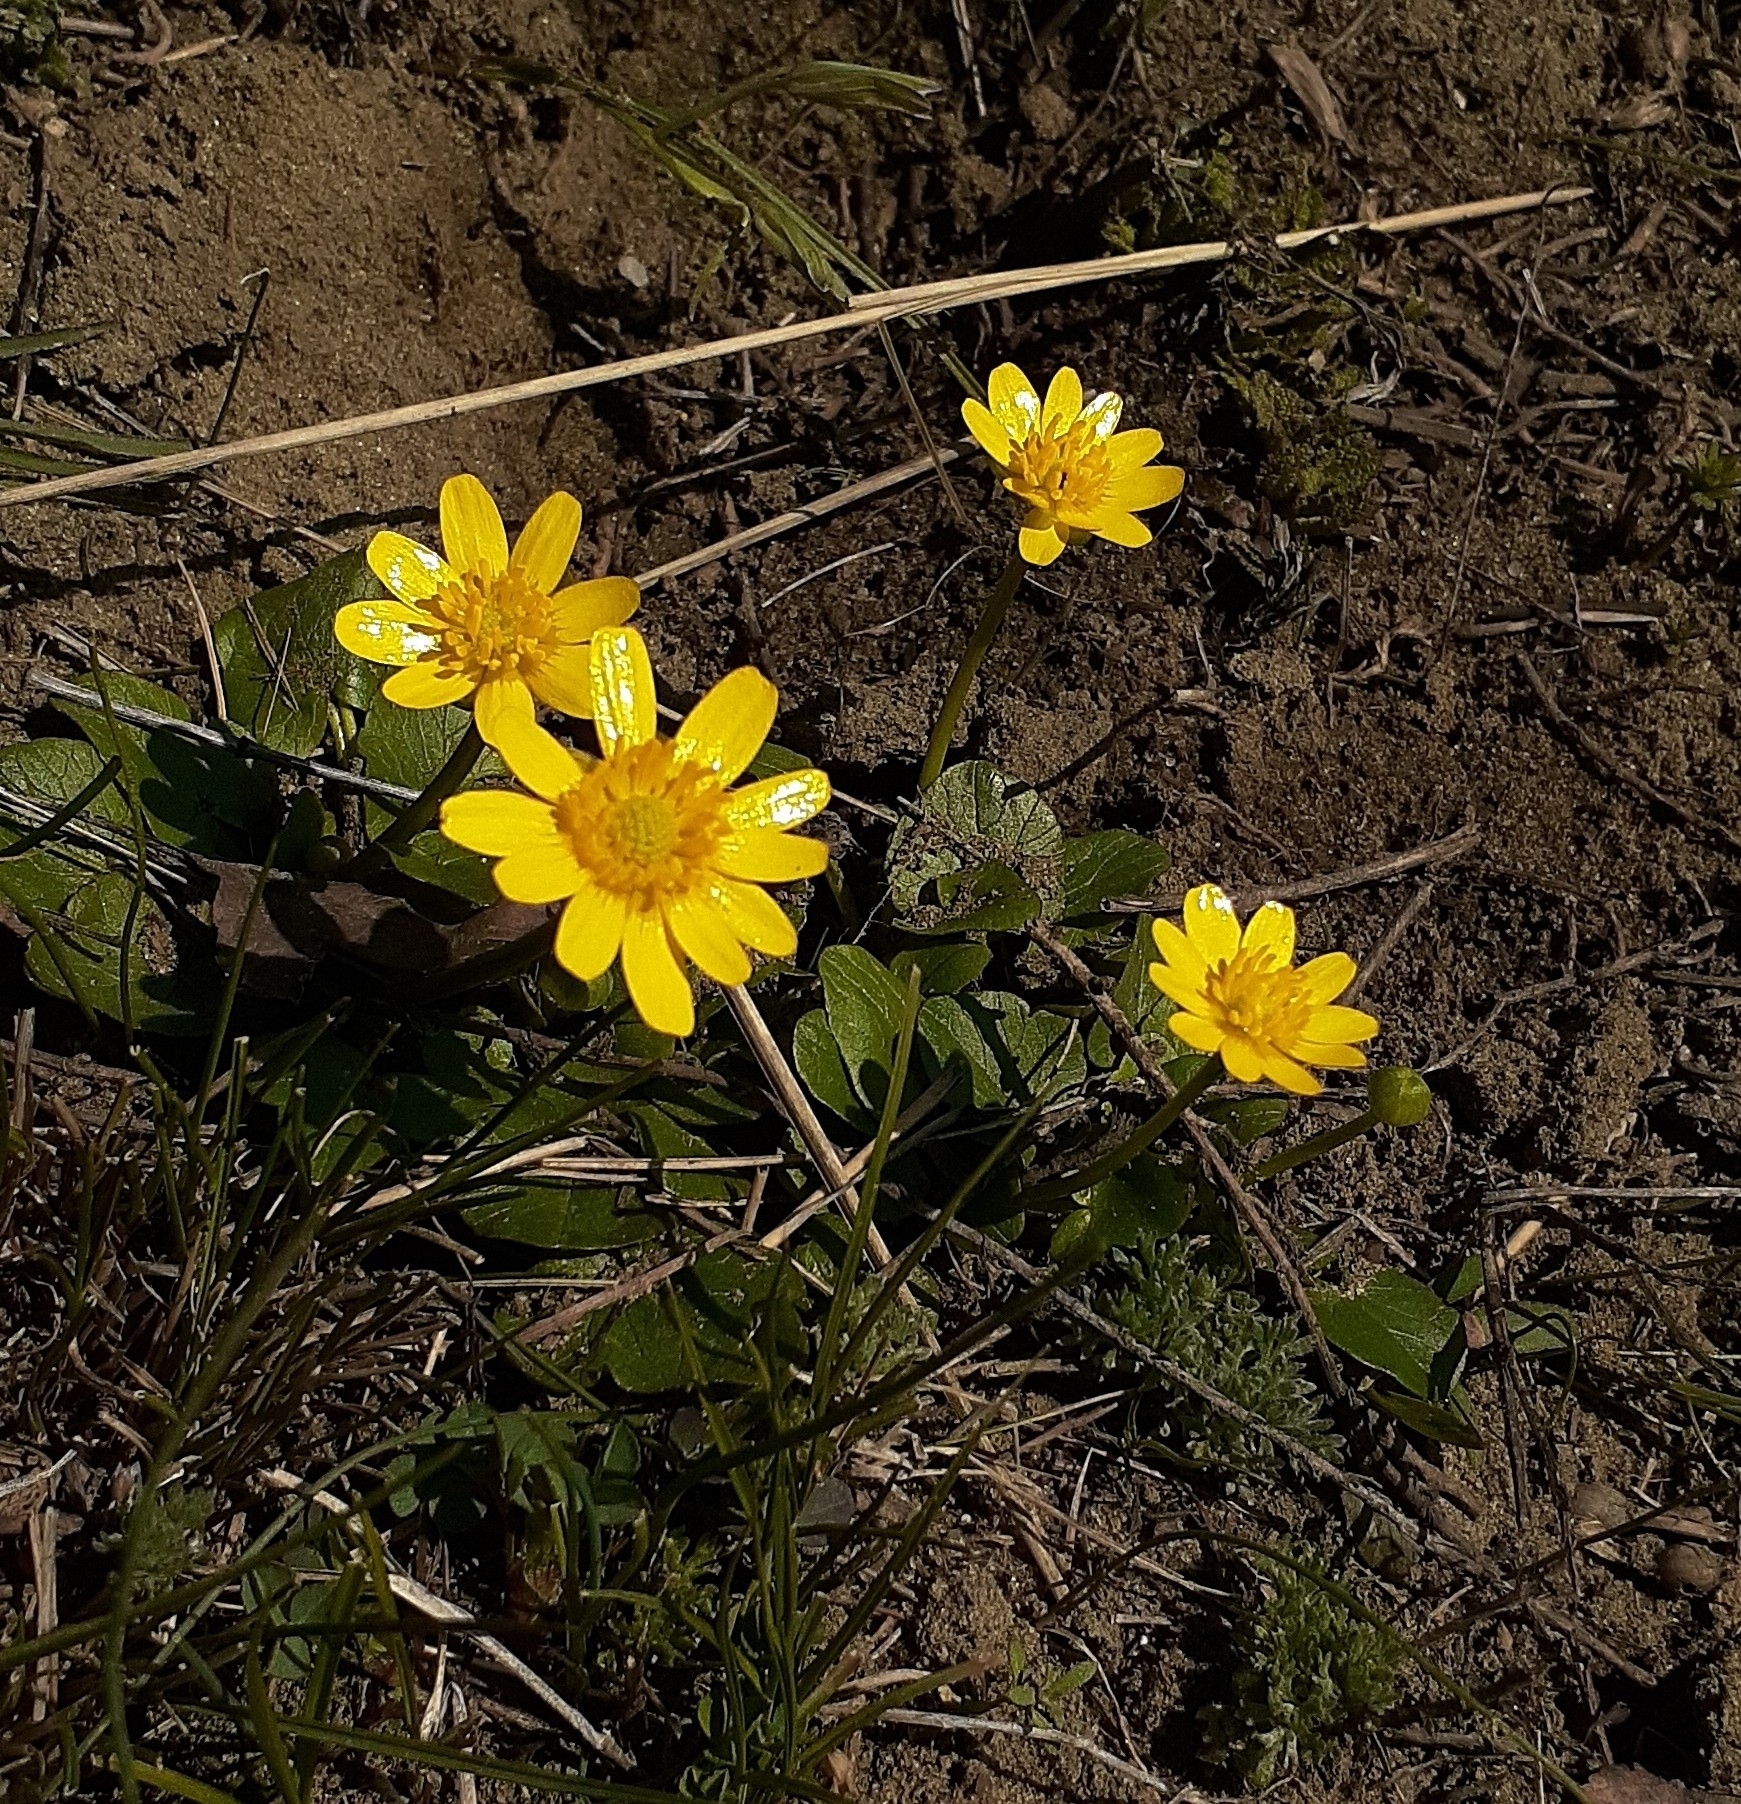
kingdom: Plantae
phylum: Tracheophyta
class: Magnoliopsida
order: Ranunculales
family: Ranunculaceae
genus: Ficaria
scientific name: Ficaria
